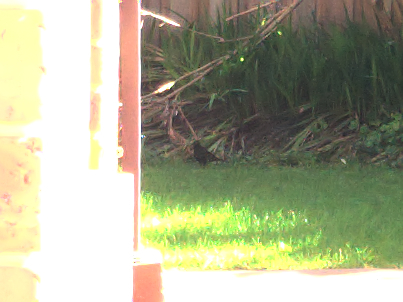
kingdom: Animalia
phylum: Chordata
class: Aves
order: Passeriformes
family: Turdidae
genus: Turdus
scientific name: Turdus merula
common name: Common blackbird
